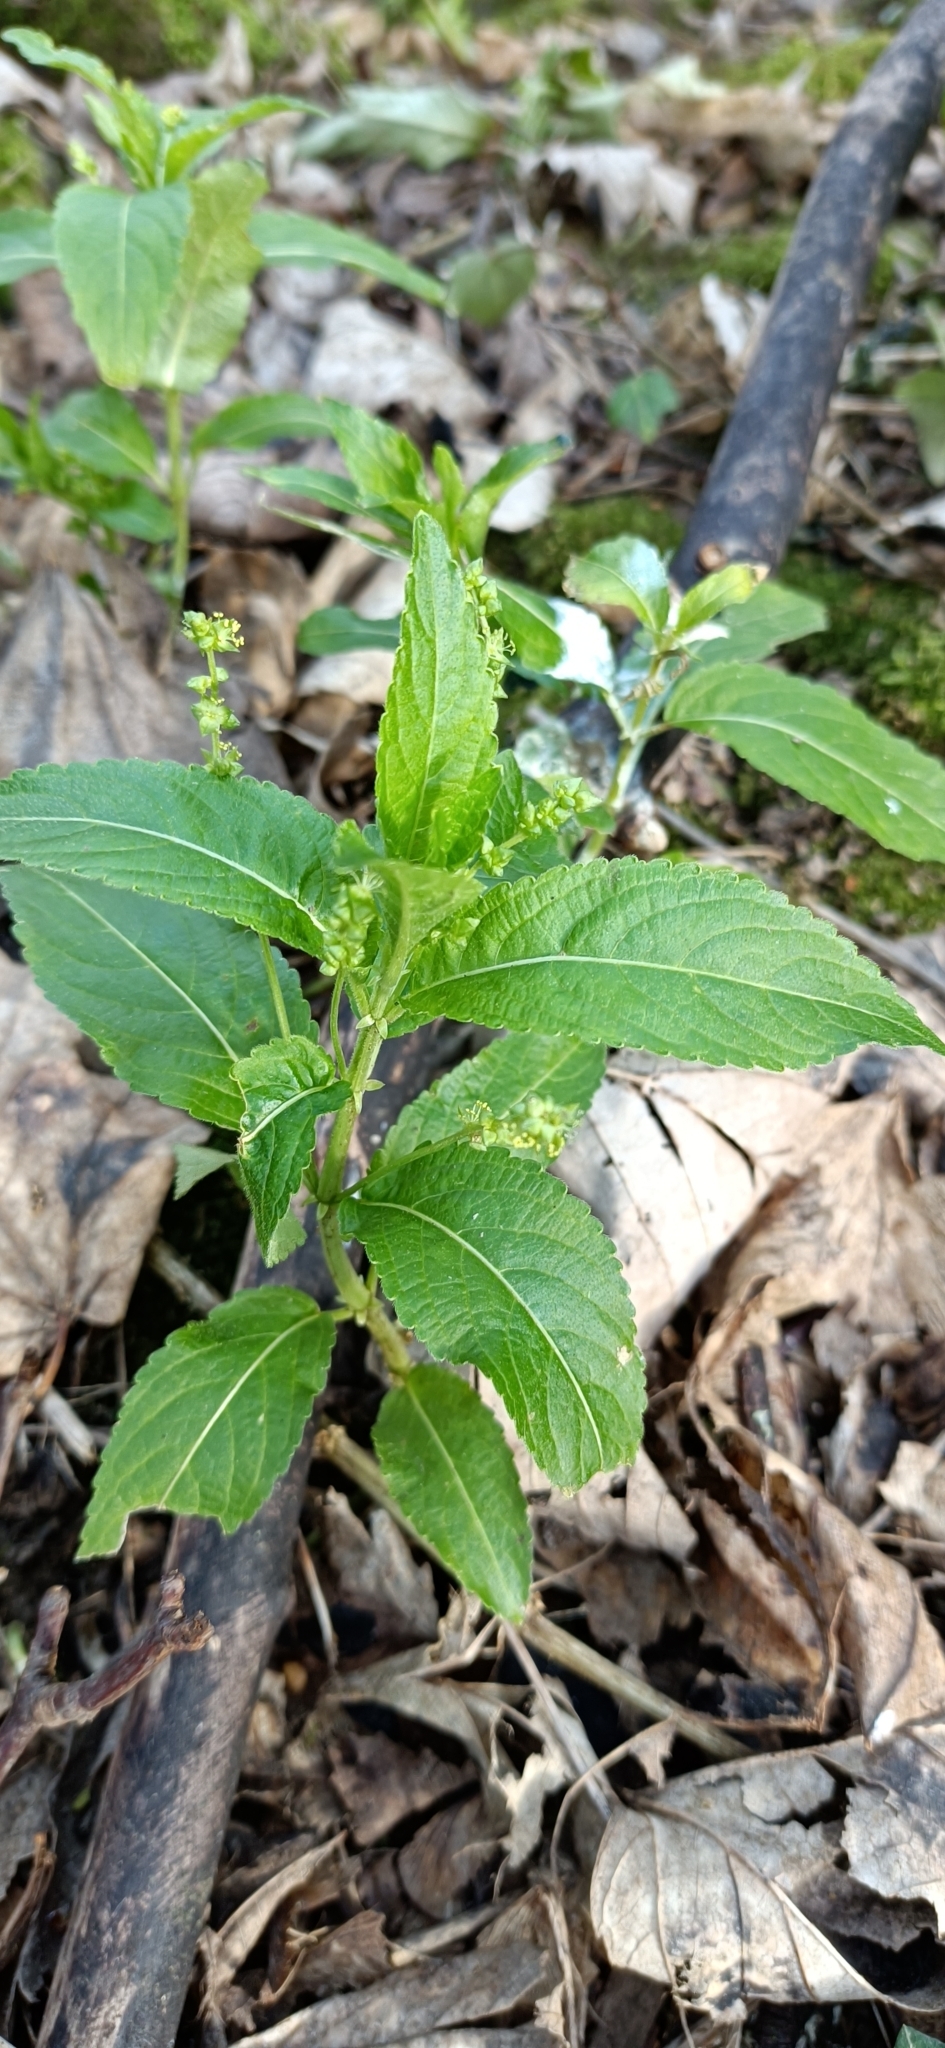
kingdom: Plantae
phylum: Tracheophyta
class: Magnoliopsida
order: Malpighiales
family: Euphorbiaceae
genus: Mercurialis
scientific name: Mercurialis perennis
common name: Dog mercury
